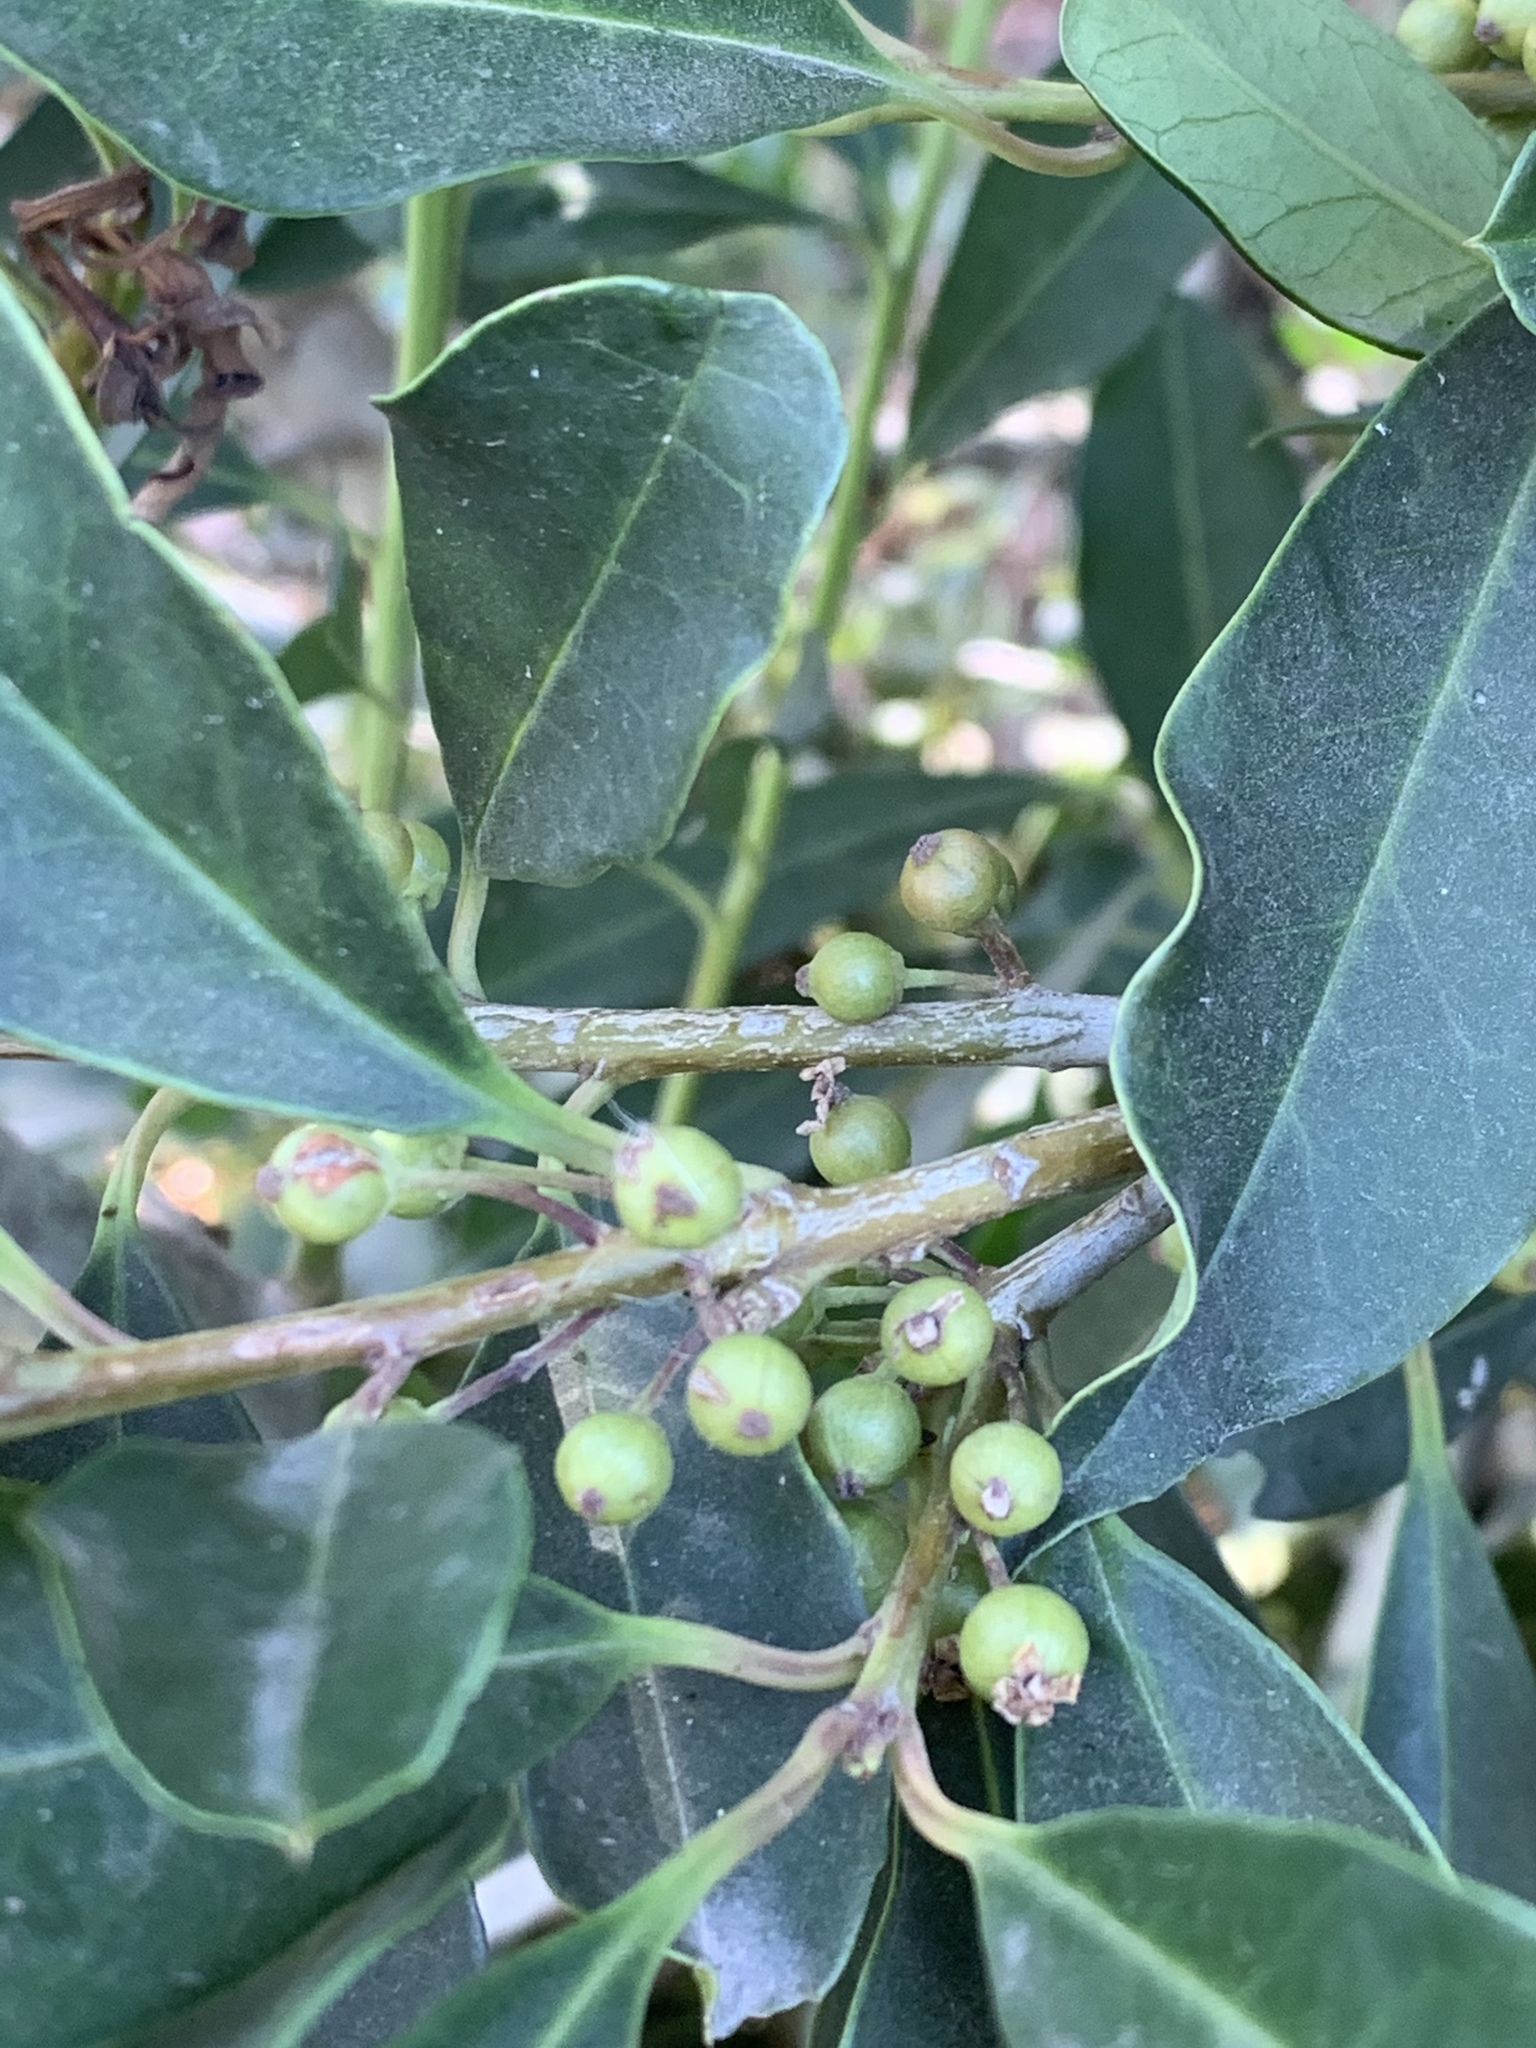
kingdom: Plantae
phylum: Tracheophyta
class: Magnoliopsida
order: Aquifoliales
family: Aquifoliaceae
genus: Ilex
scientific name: Ilex mitis
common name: African holly
